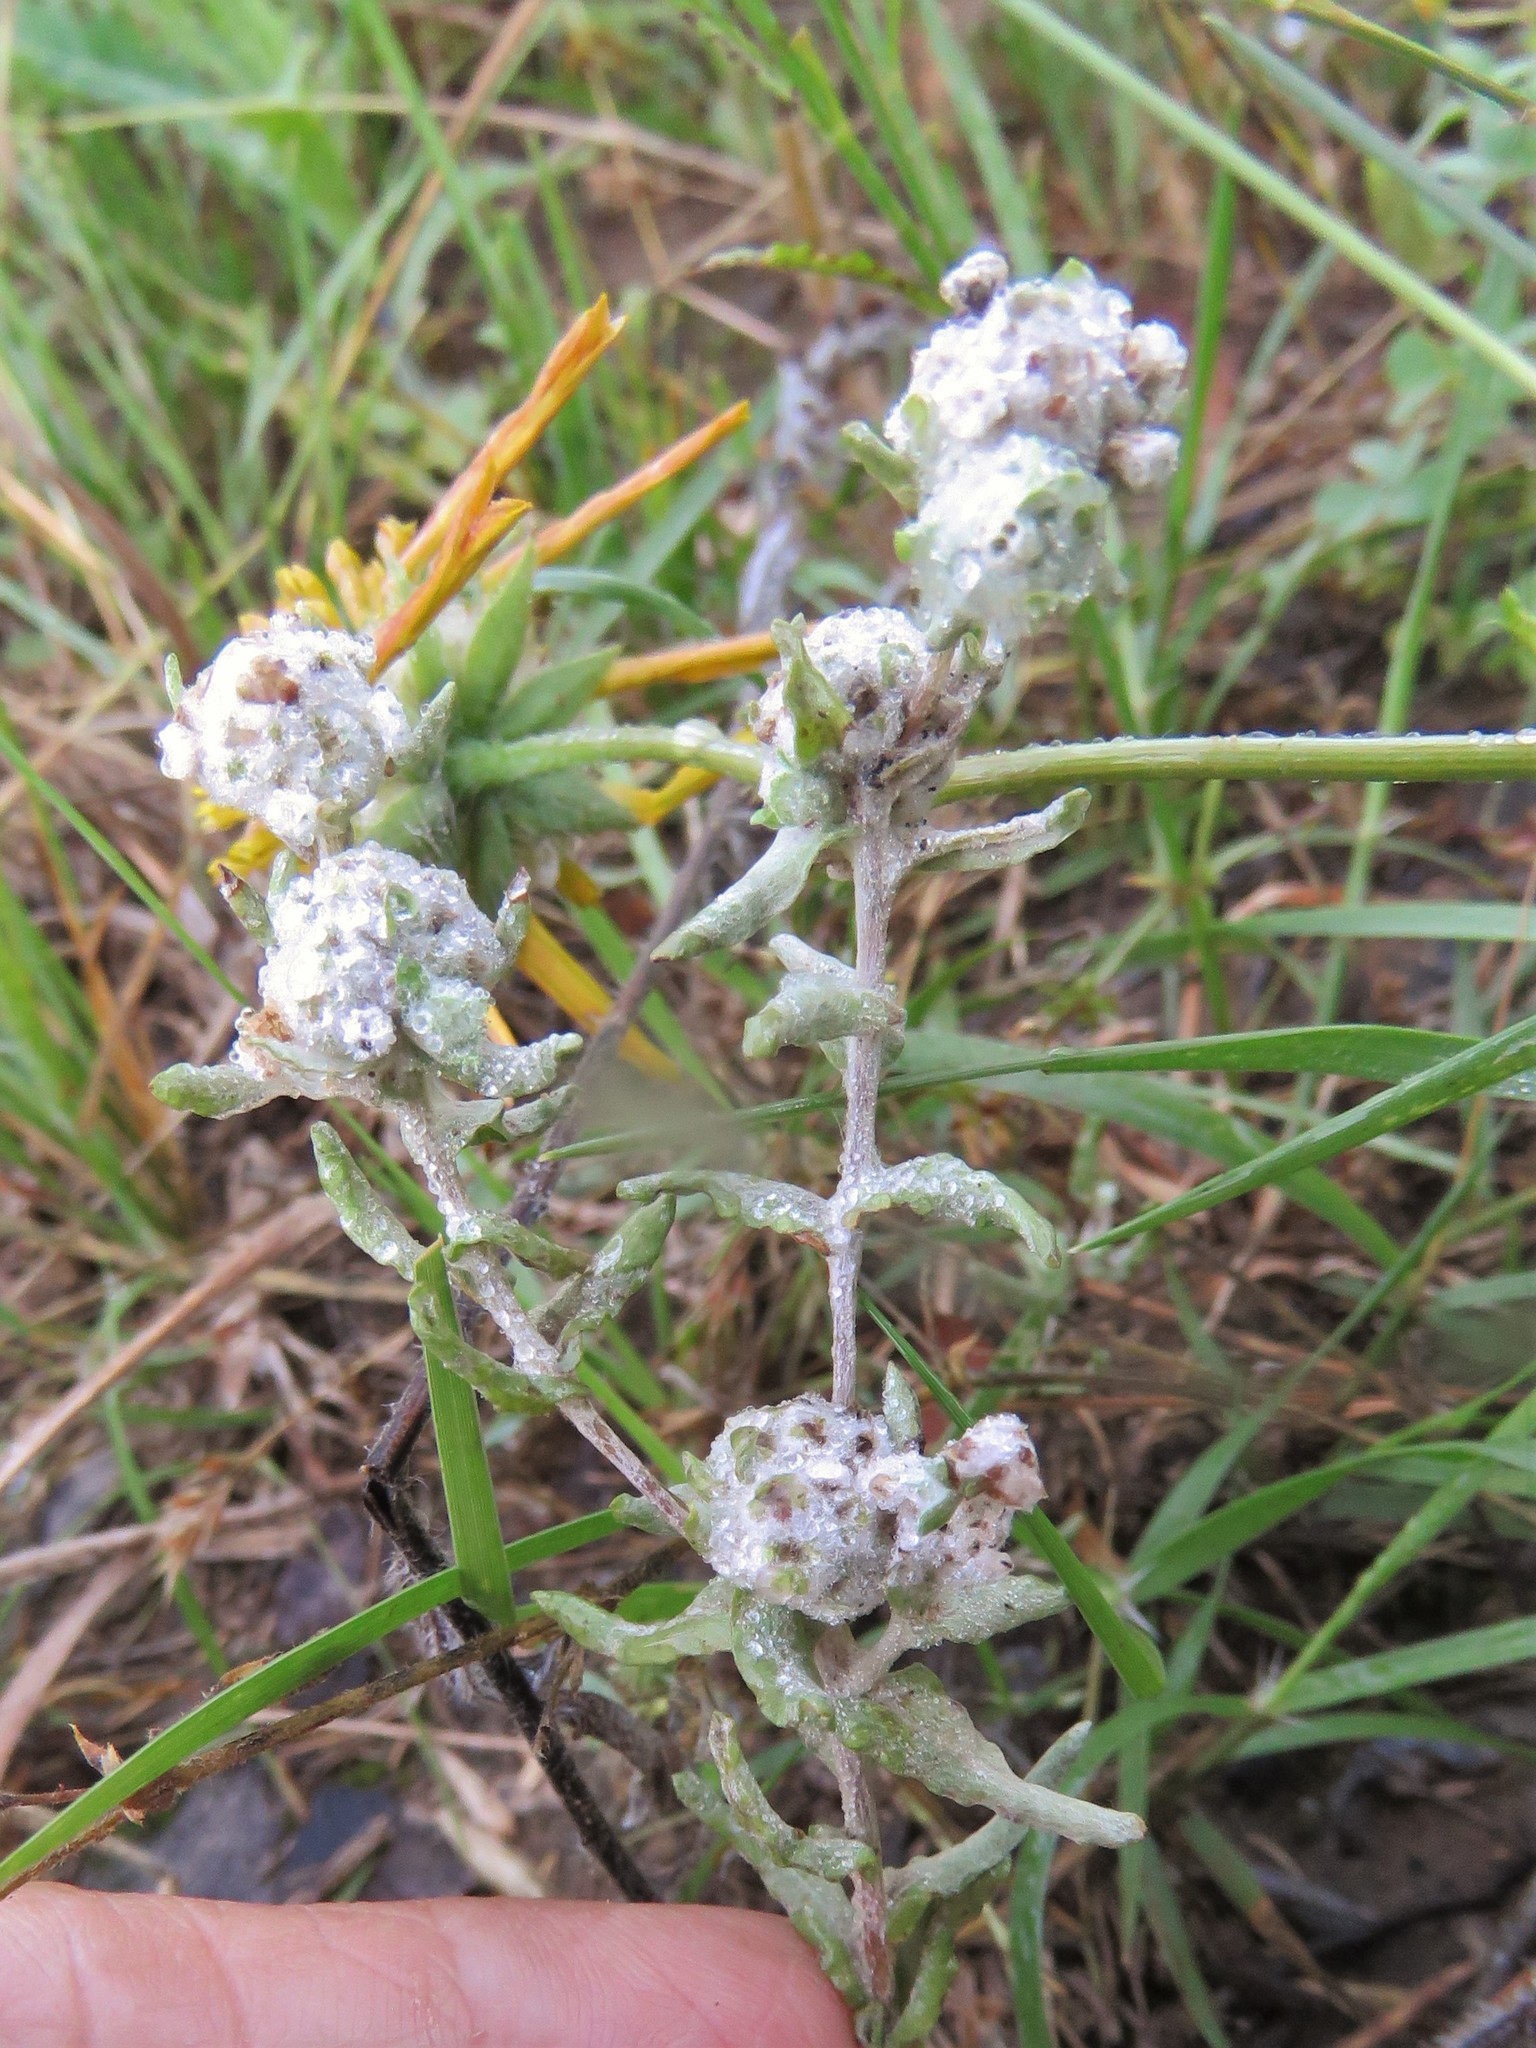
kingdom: Plantae
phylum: Tracheophyta
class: Magnoliopsida
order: Asterales
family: Asteraceae
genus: Diaperia
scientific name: Diaperia verna
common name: Many-stem rabbit-tobacco
